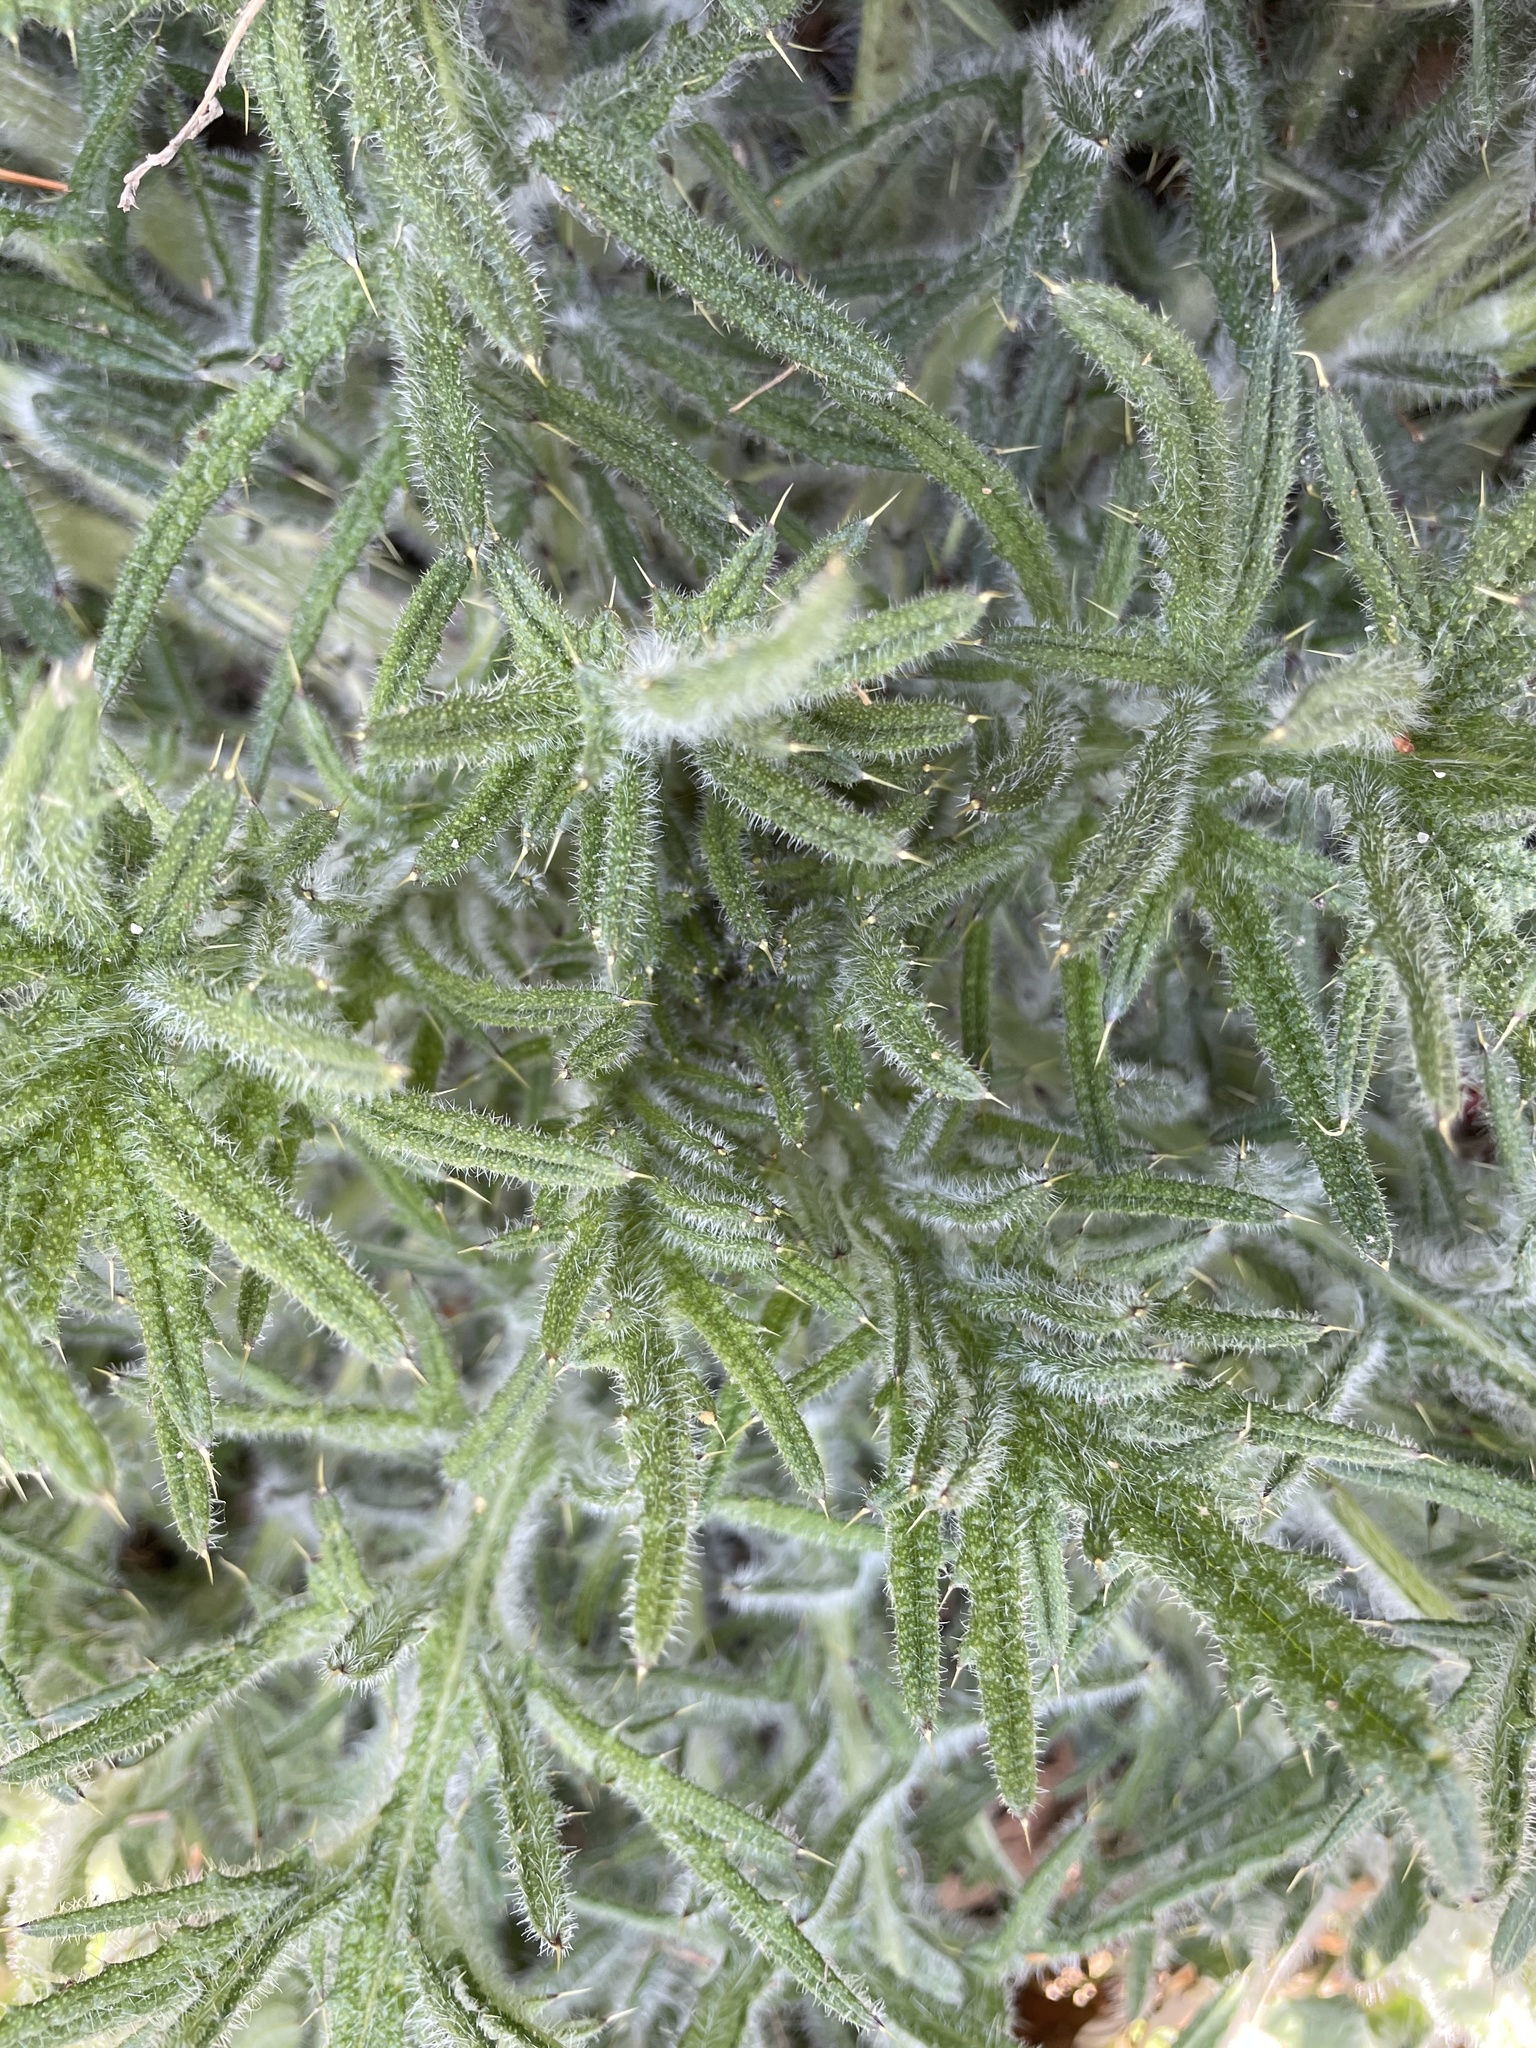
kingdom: Plantae
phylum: Tracheophyta
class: Magnoliopsida
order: Asterales
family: Asteraceae
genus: Cirsium
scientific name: Cirsium vulgare
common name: Bull thistle
